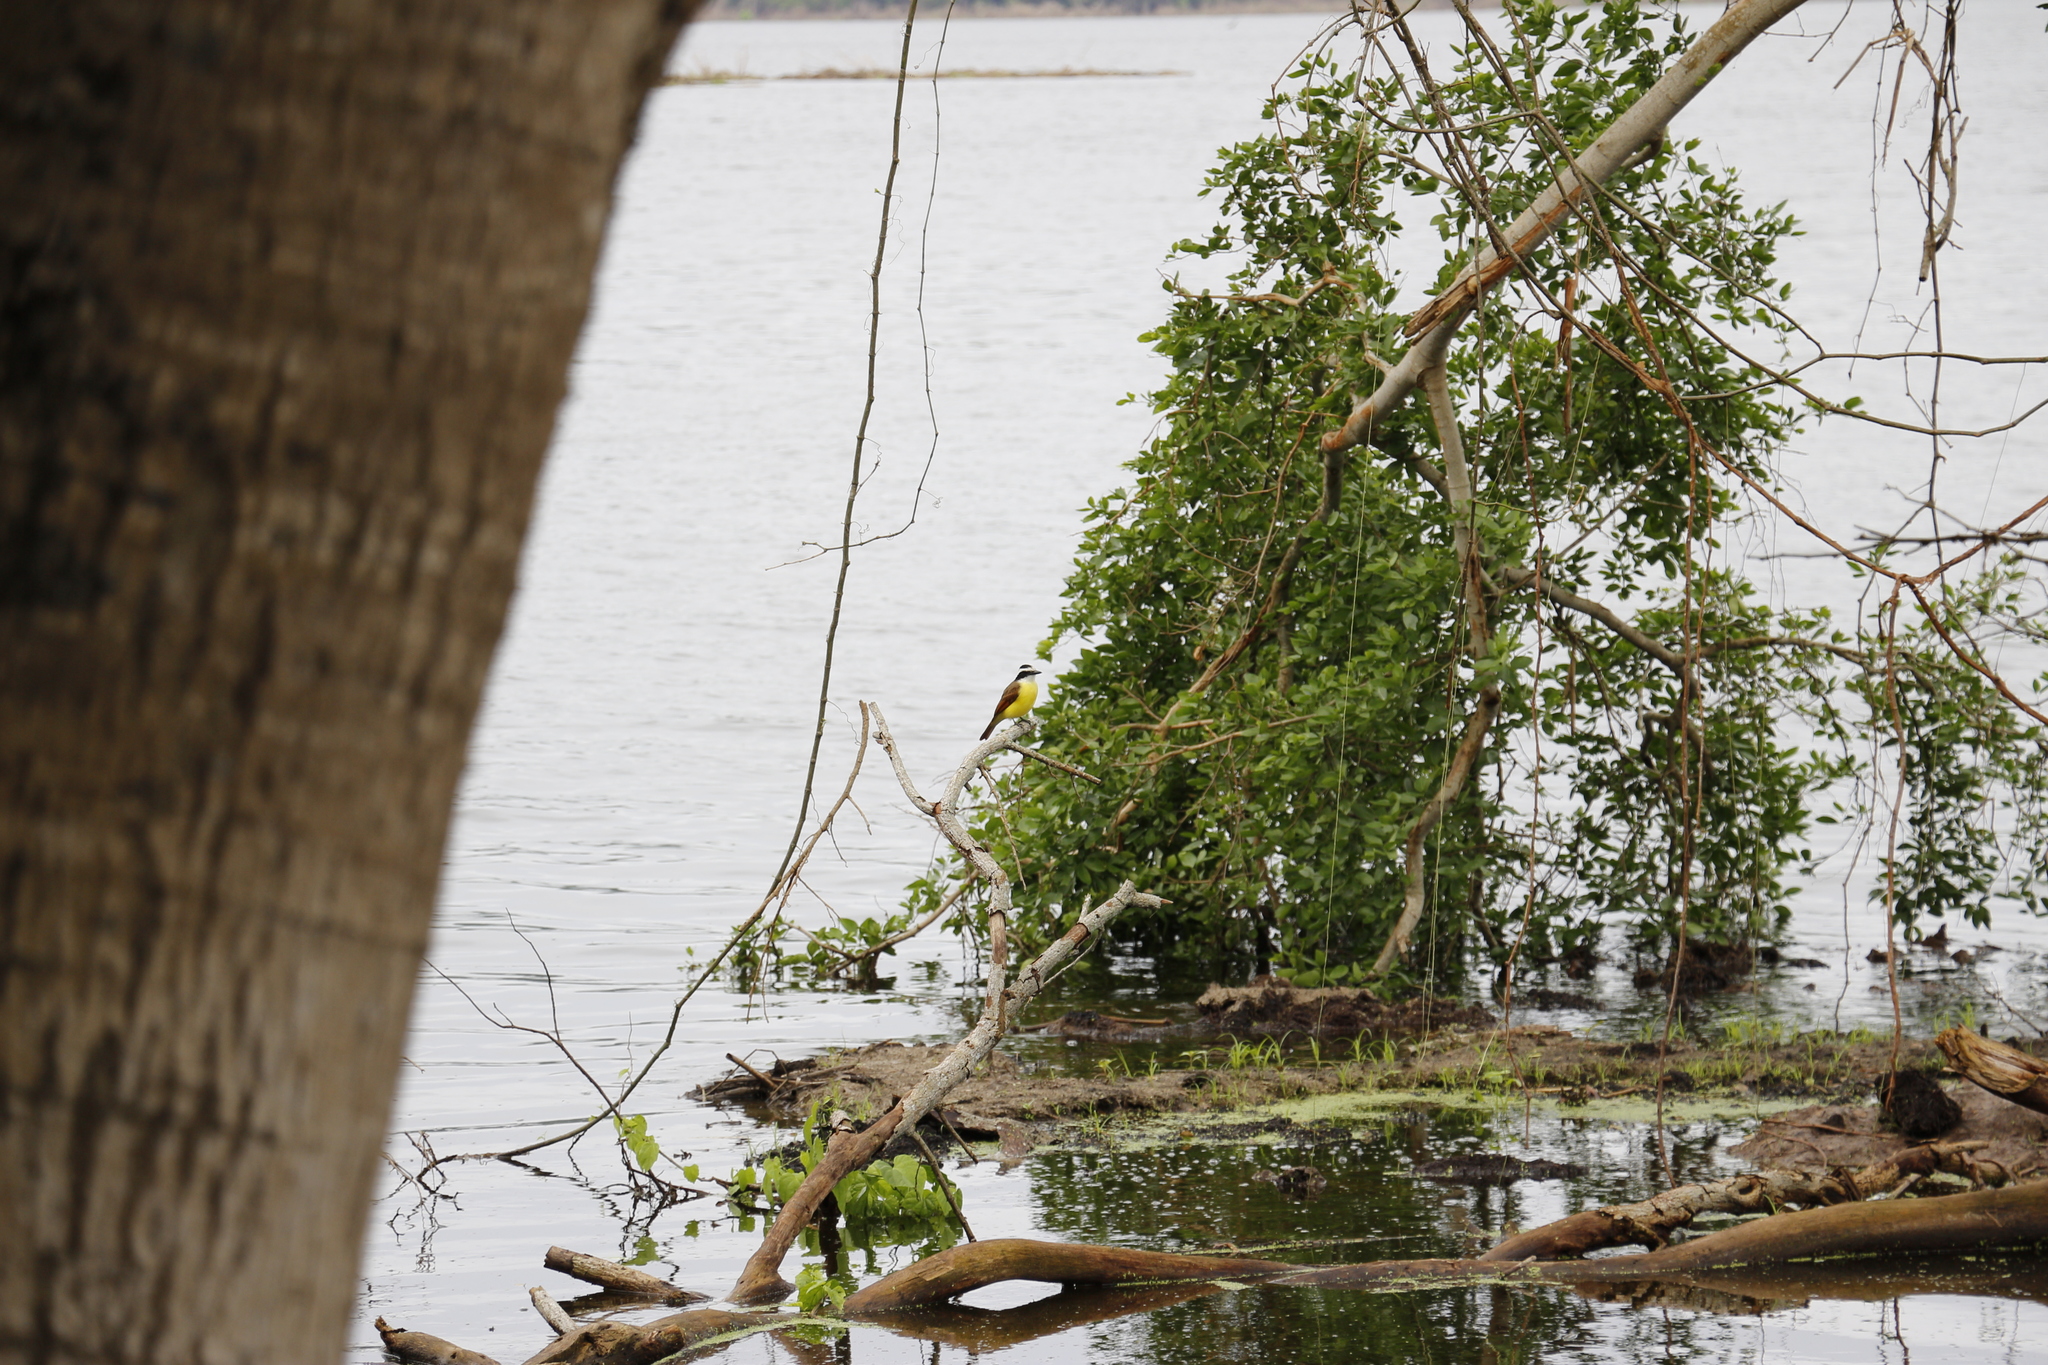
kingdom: Animalia
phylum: Chordata
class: Aves
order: Passeriformes
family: Tyrannidae
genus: Pitangus
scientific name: Pitangus sulphuratus
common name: Great kiskadee
